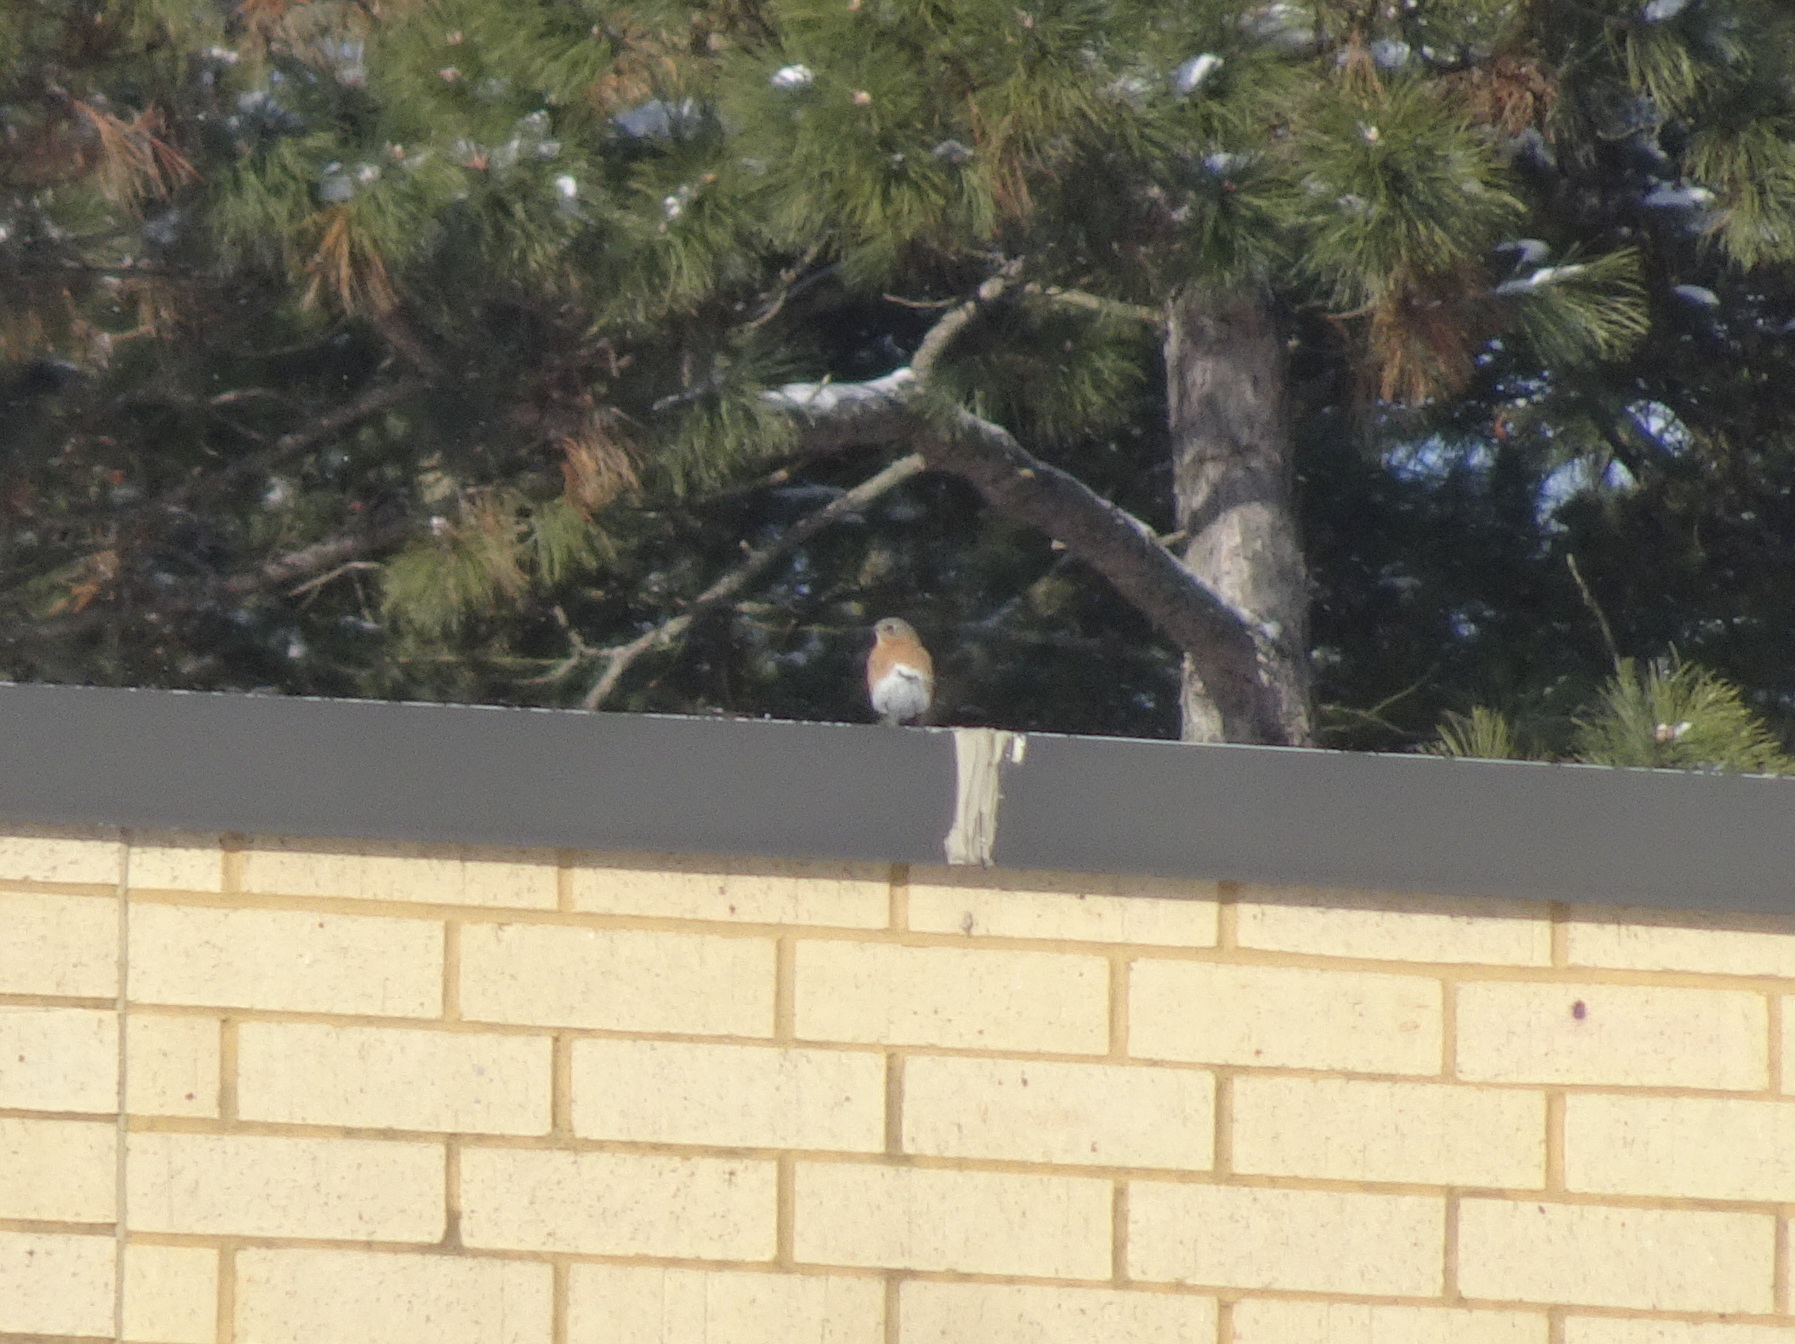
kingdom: Animalia
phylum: Chordata
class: Aves
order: Passeriformes
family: Turdidae
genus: Sialia
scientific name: Sialia sialis
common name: Eastern bluebird
